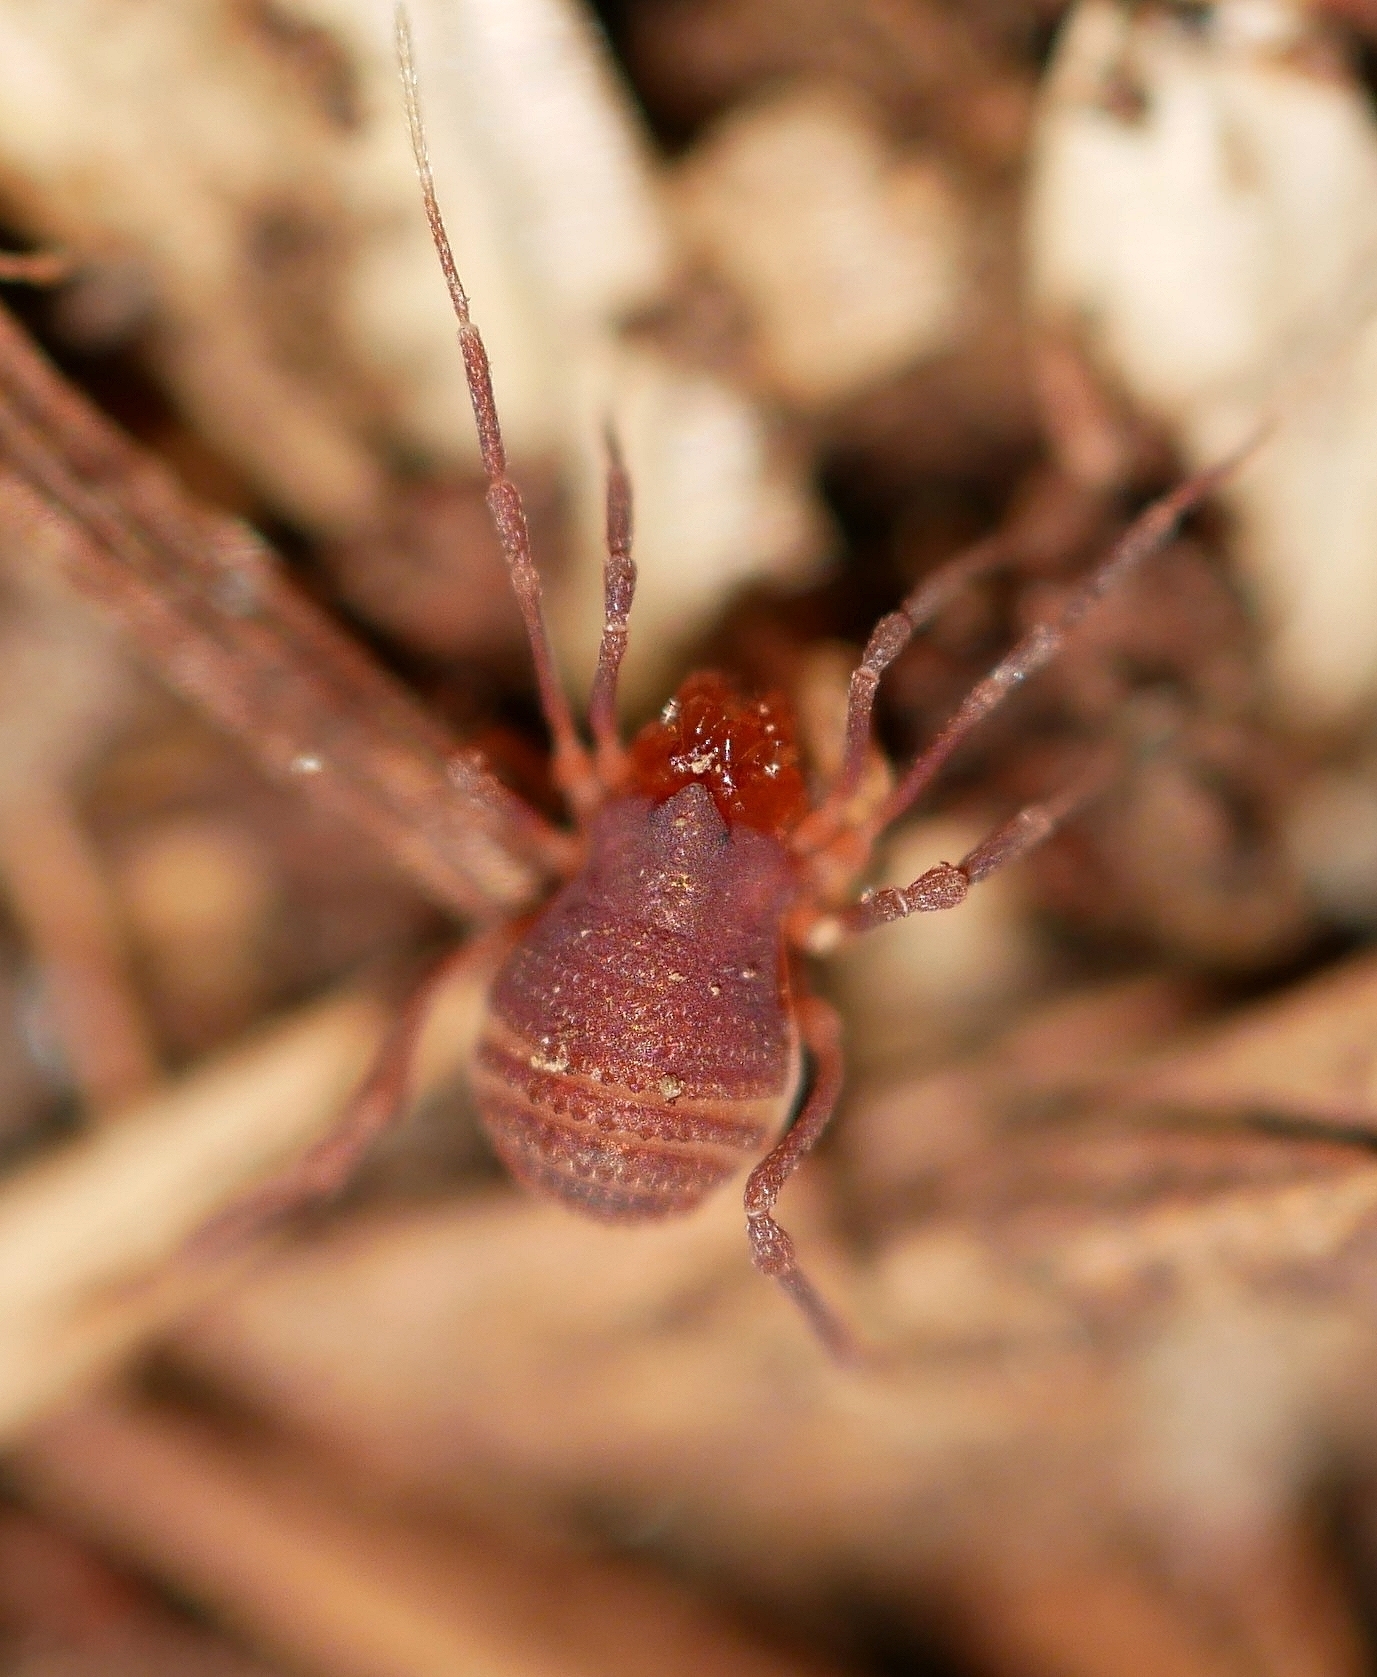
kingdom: Animalia
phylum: Arthropoda
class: Arachnida
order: Opiliones
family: Phalangodidae
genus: Sitalcina
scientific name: Sitalcina californica
